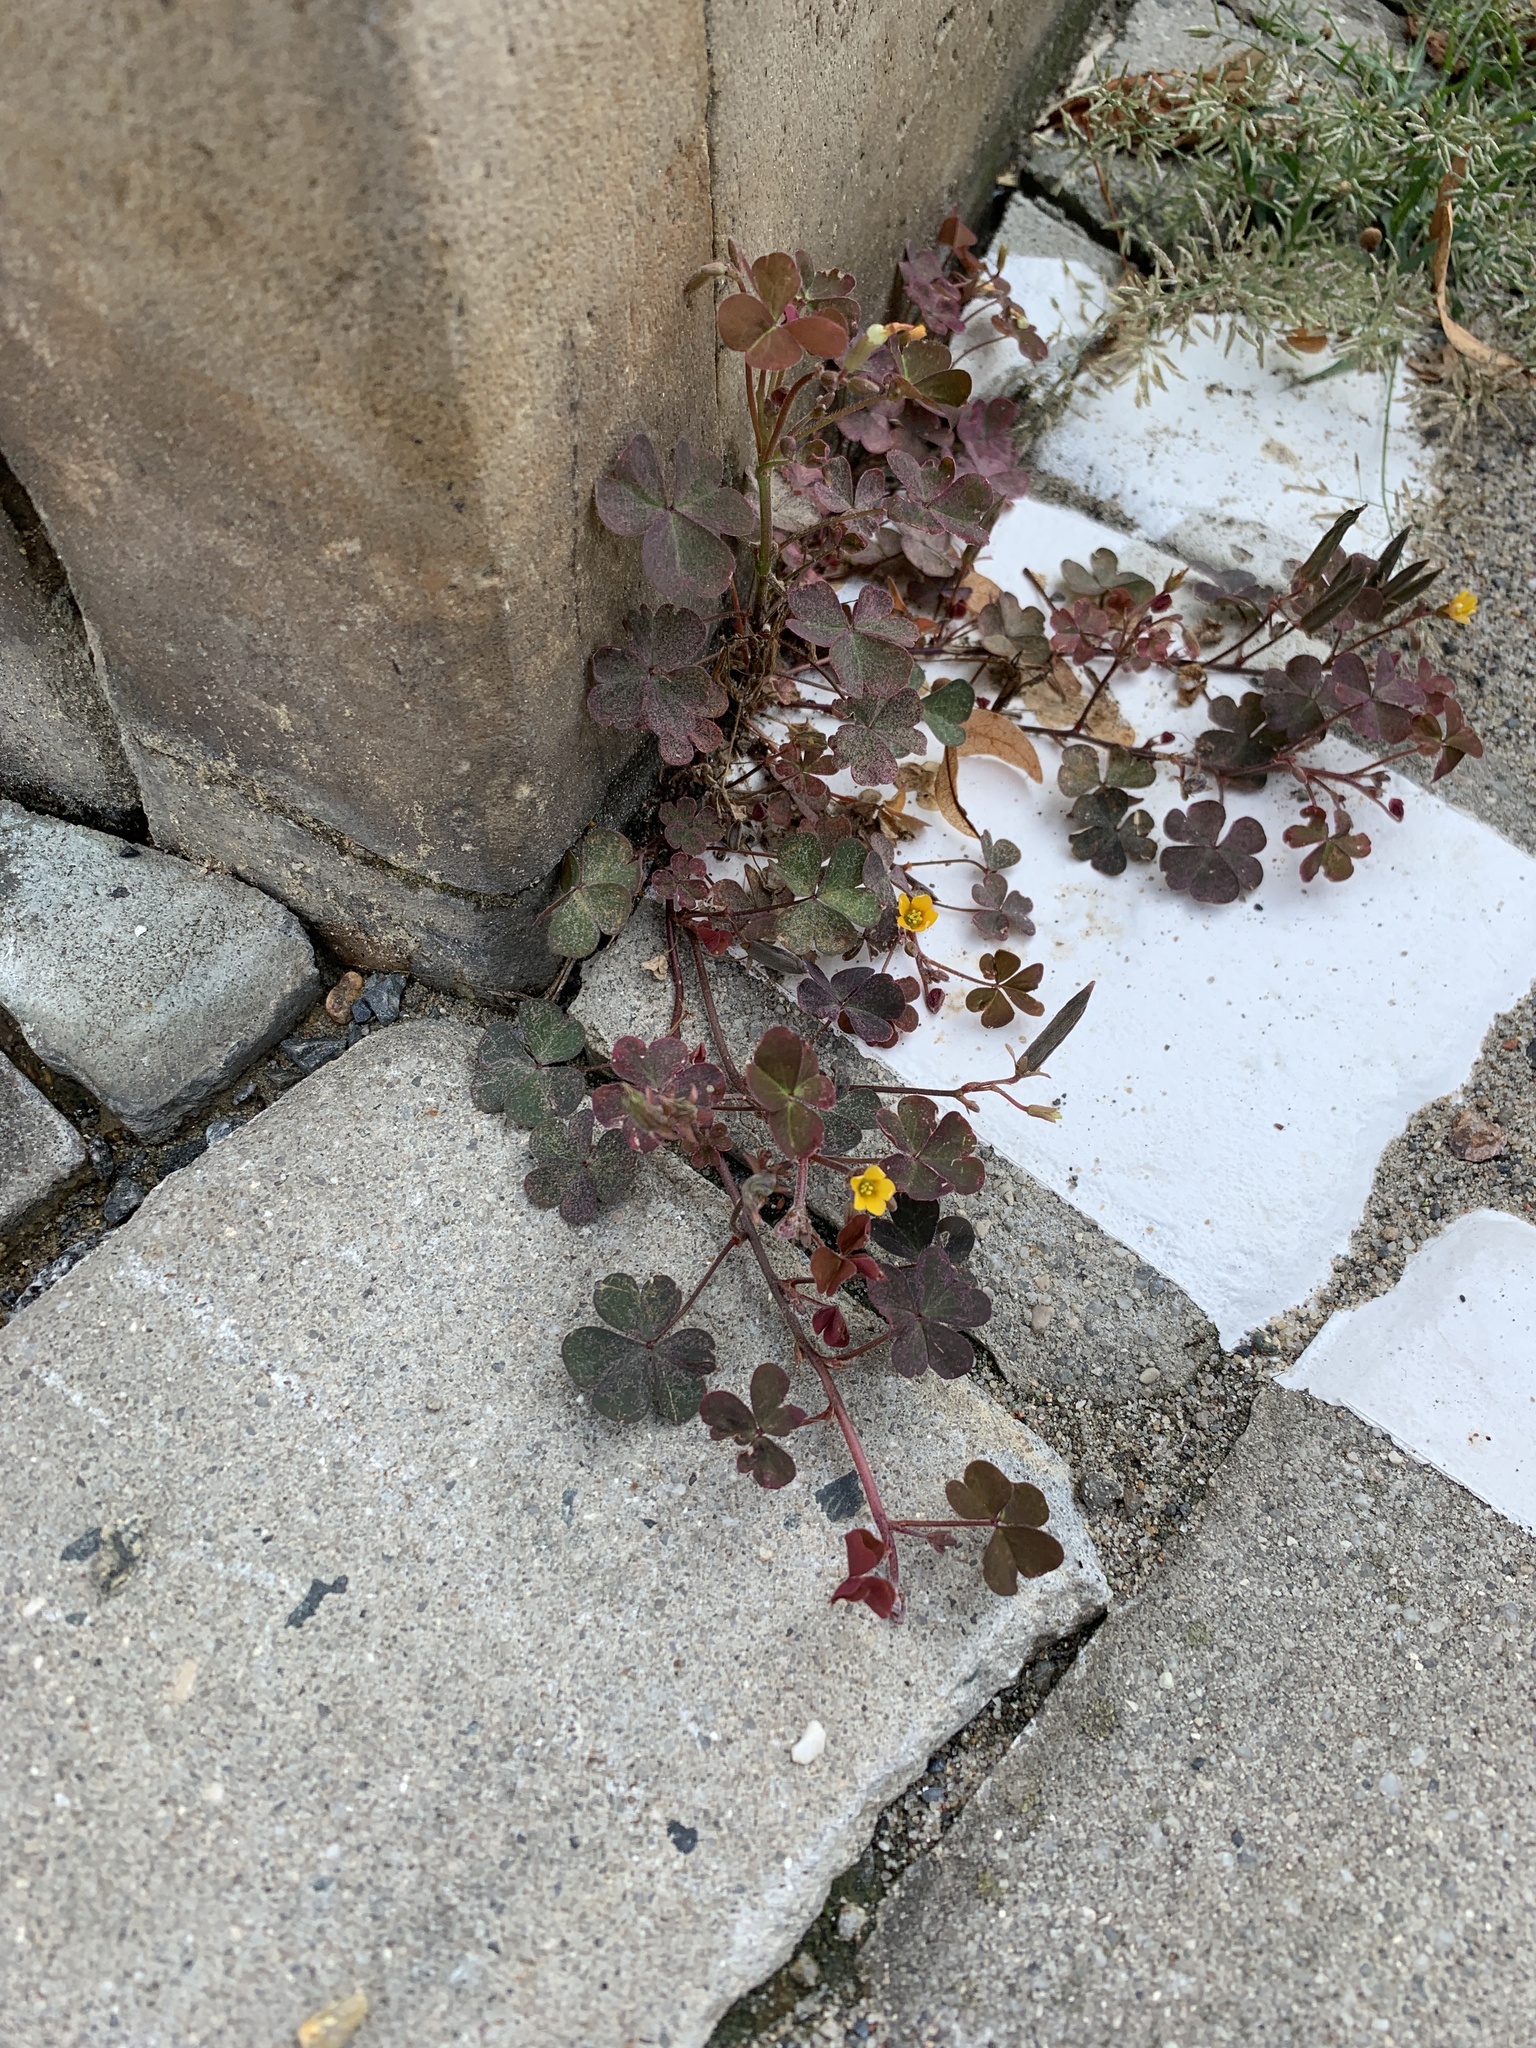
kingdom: Plantae
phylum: Tracheophyta
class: Magnoliopsida
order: Oxalidales
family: Oxalidaceae
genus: Oxalis
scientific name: Oxalis corniculata
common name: Procumbent yellow-sorrel
